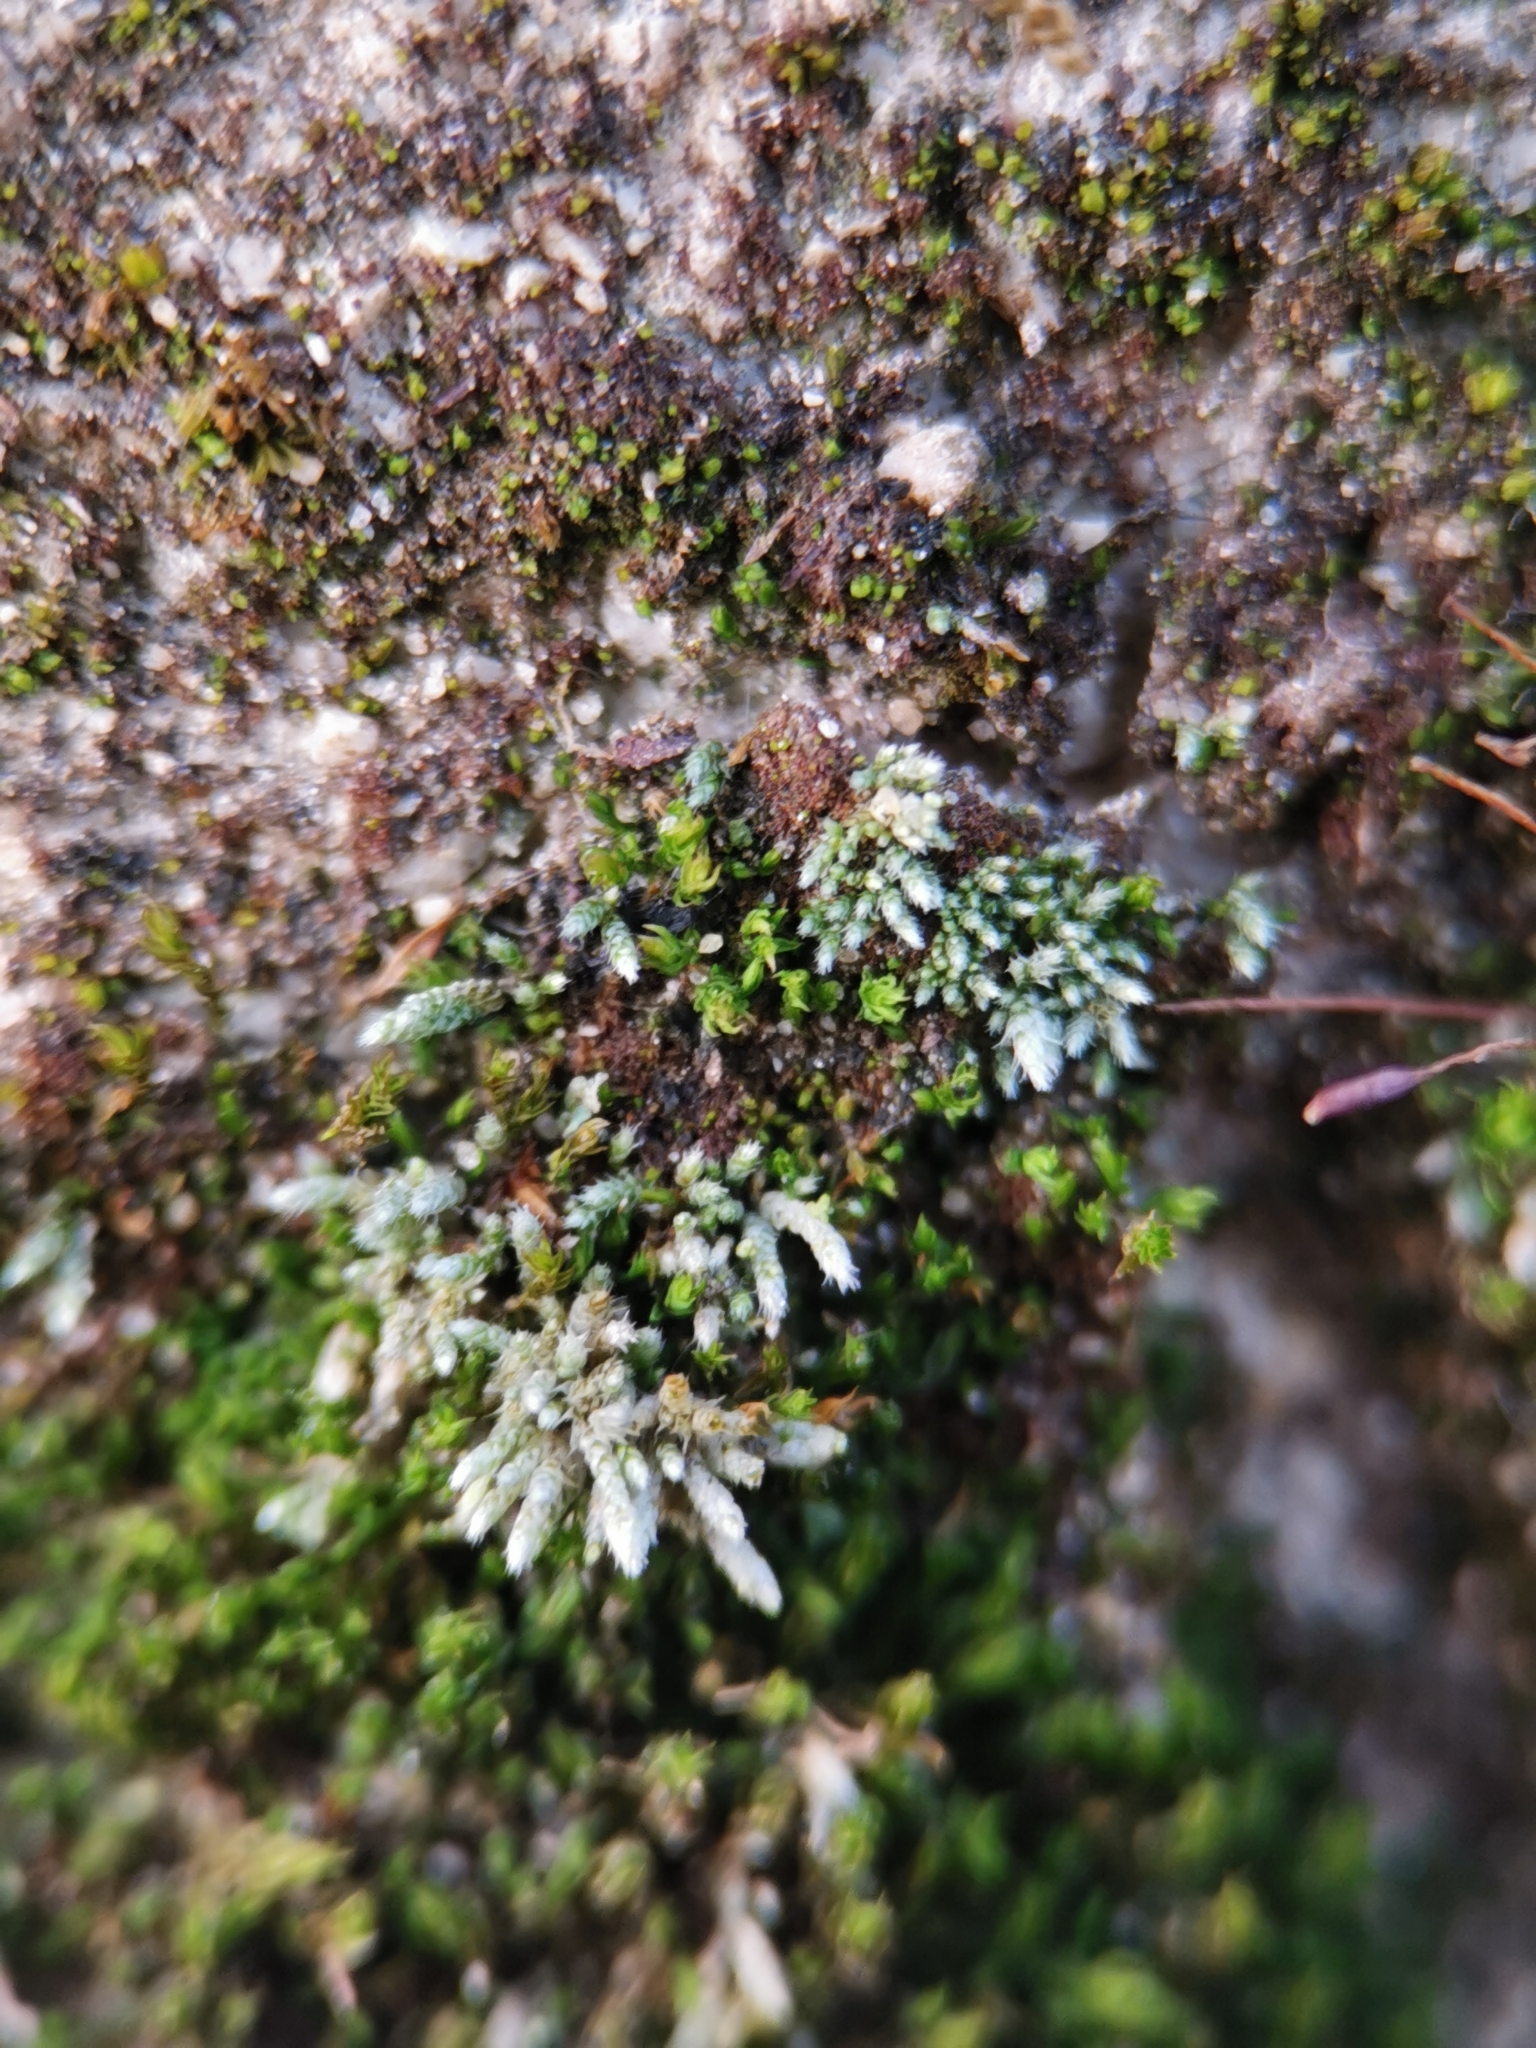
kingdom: Plantae
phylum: Bryophyta
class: Bryopsida
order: Bryales
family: Bryaceae
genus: Bryum
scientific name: Bryum argenteum
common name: Silver-moss
